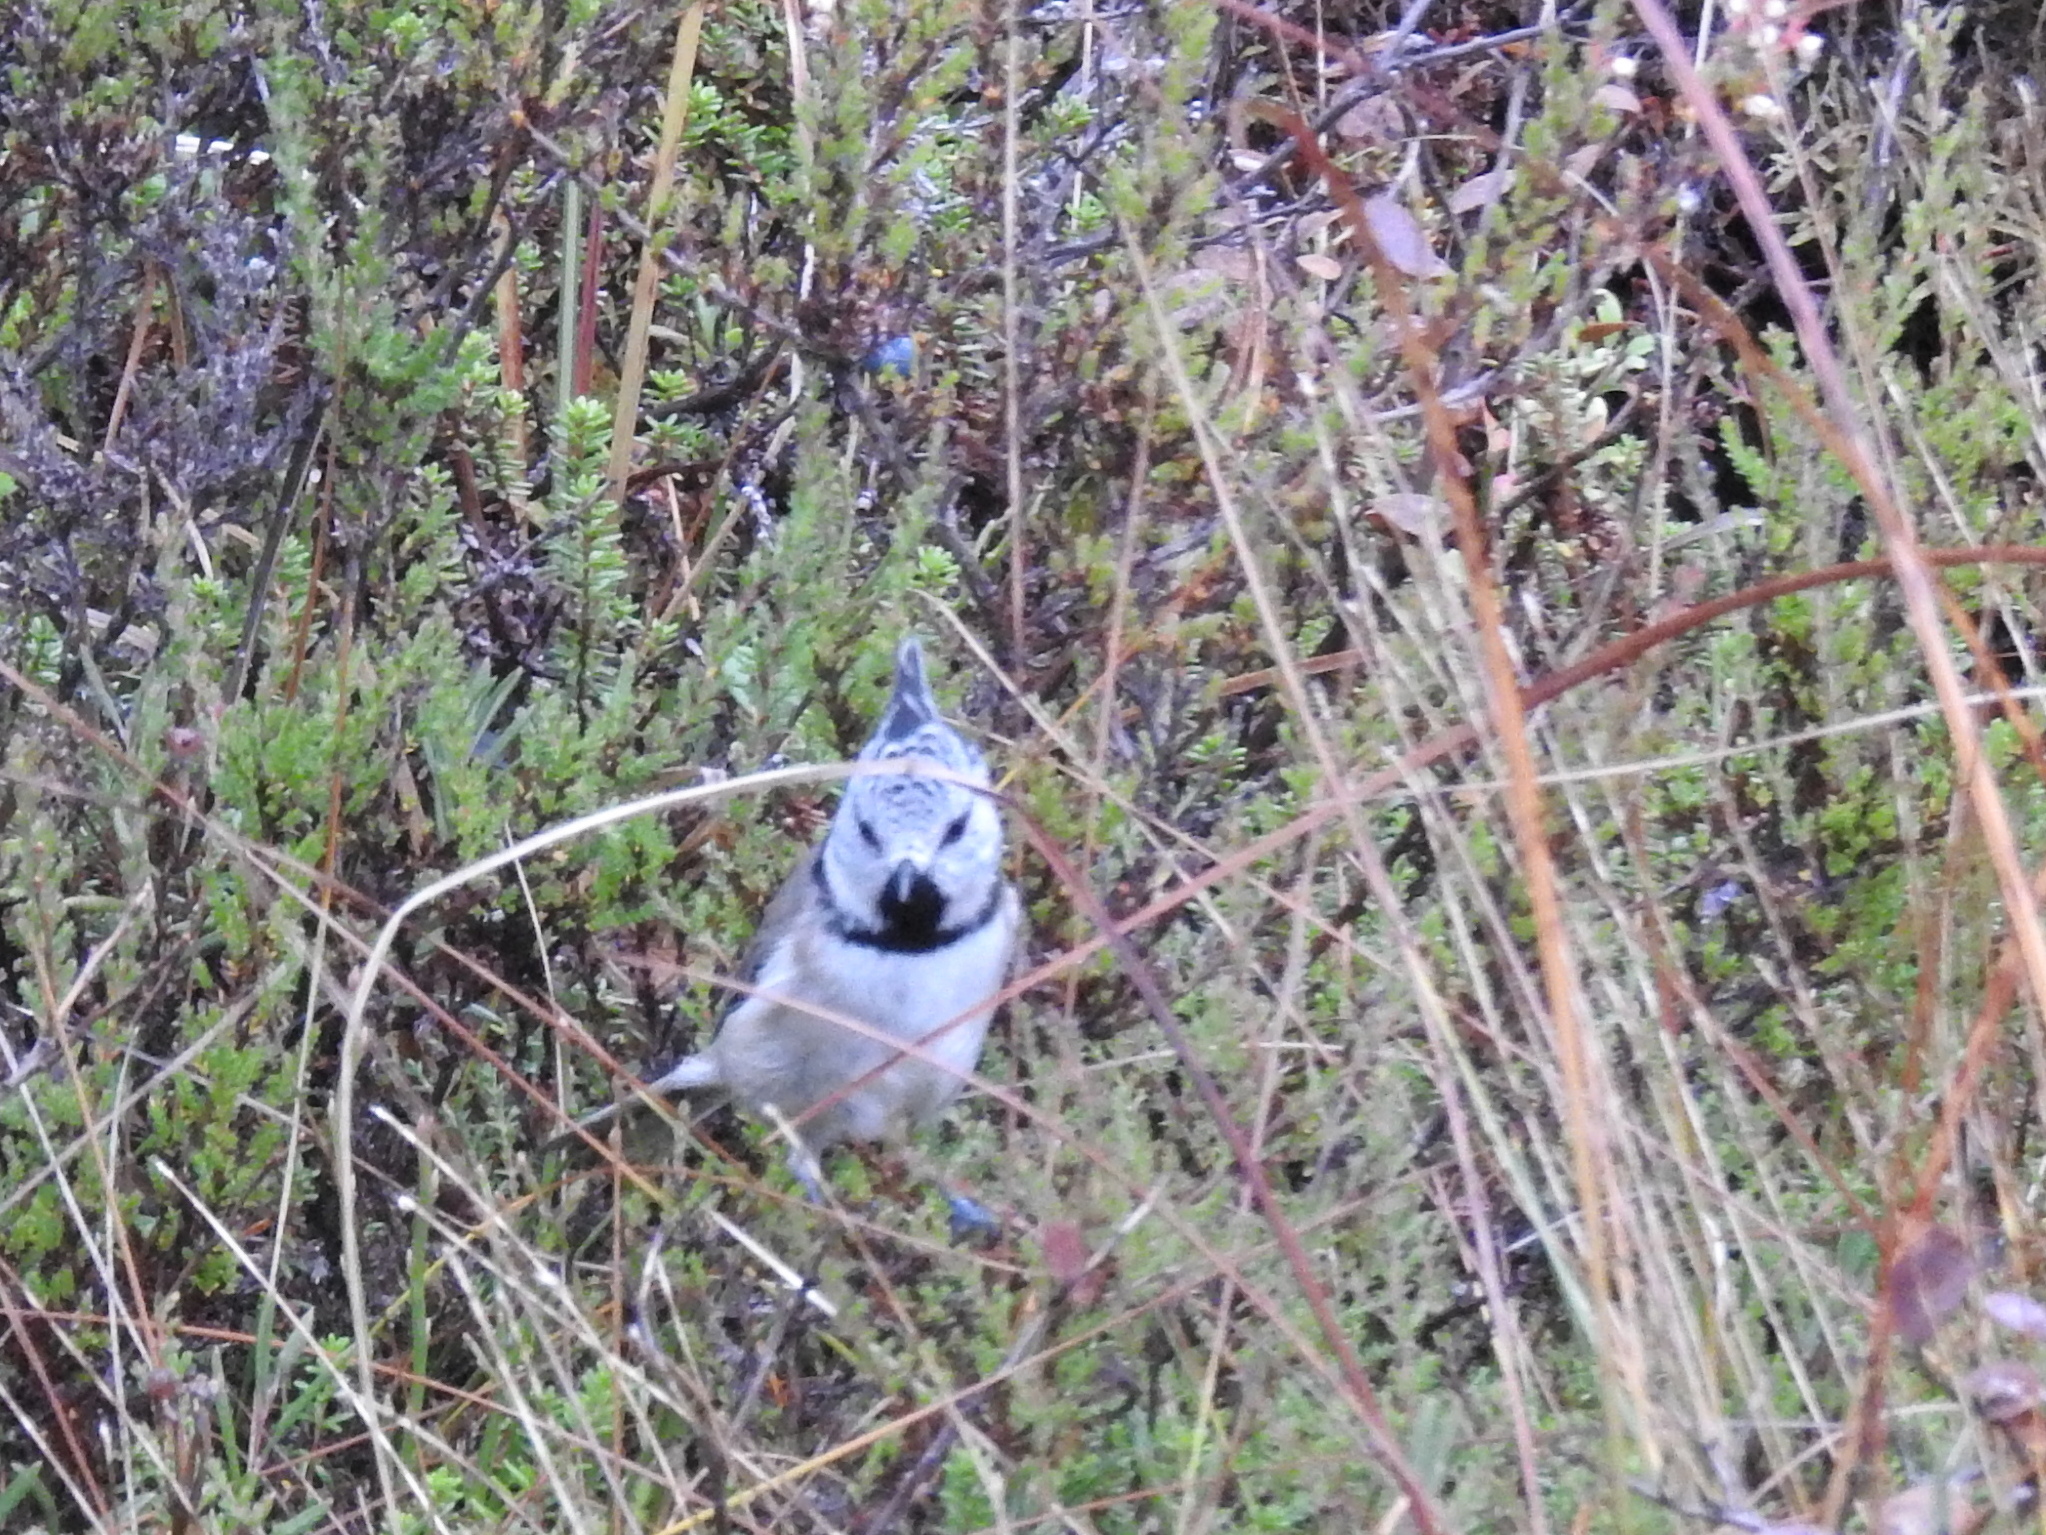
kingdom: Animalia
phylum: Chordata
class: Aves
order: Passeriformes
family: Paridae
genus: Lophophanes
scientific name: Lophophanes cristatus
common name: European crested tit
